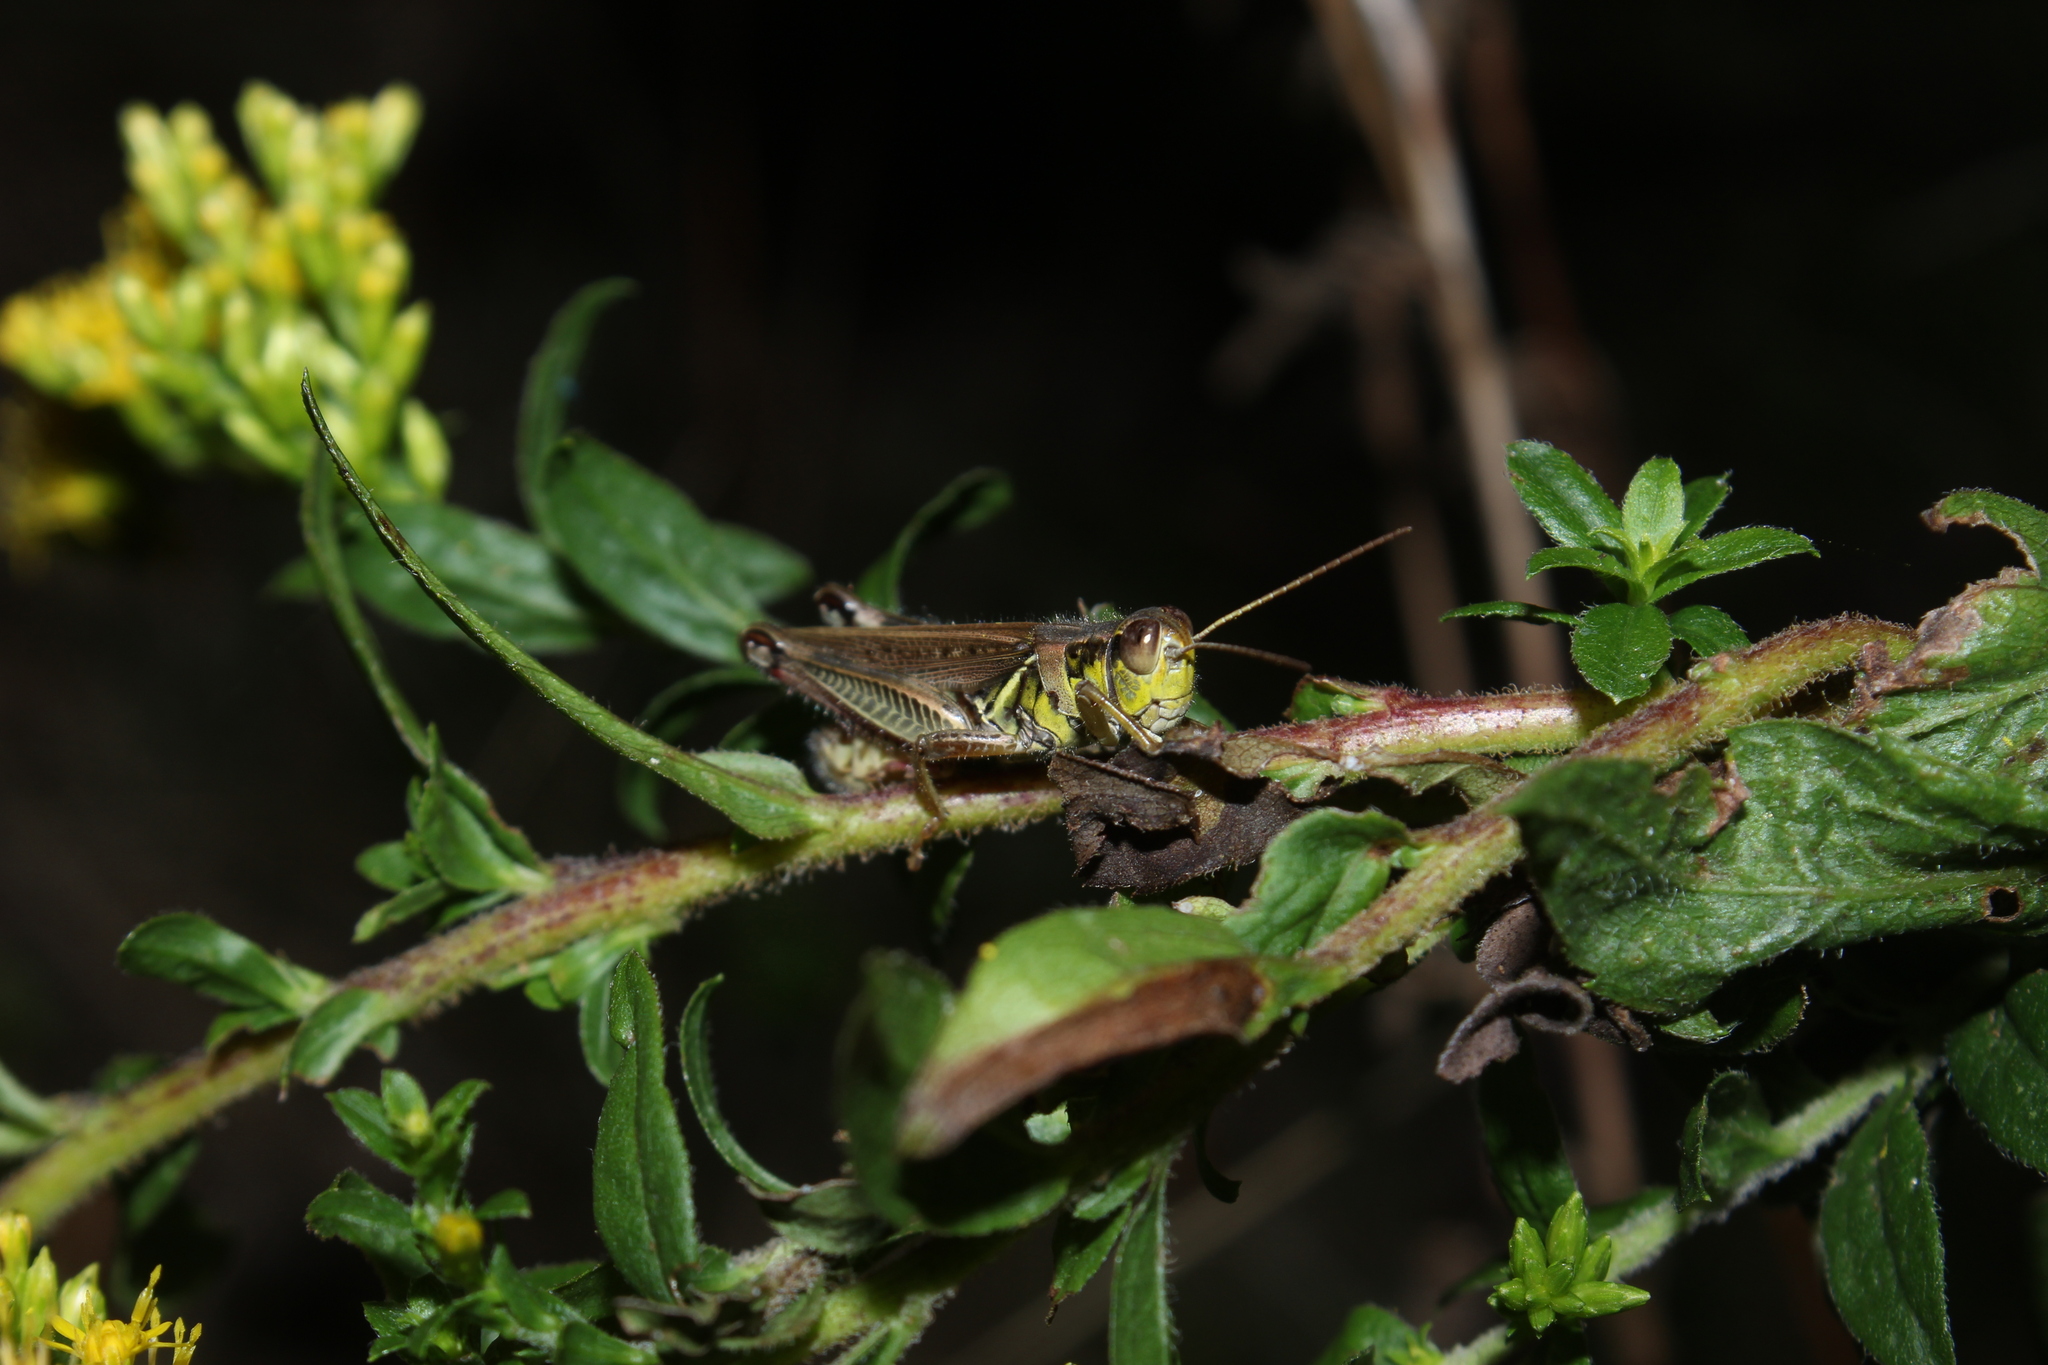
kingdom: Animalia
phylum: Arthropoda
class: Insecta
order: Orthoptera
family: Acrididae
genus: Melanoplus
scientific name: Melanoplus femurrubrum
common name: Red-legged grasshopper
